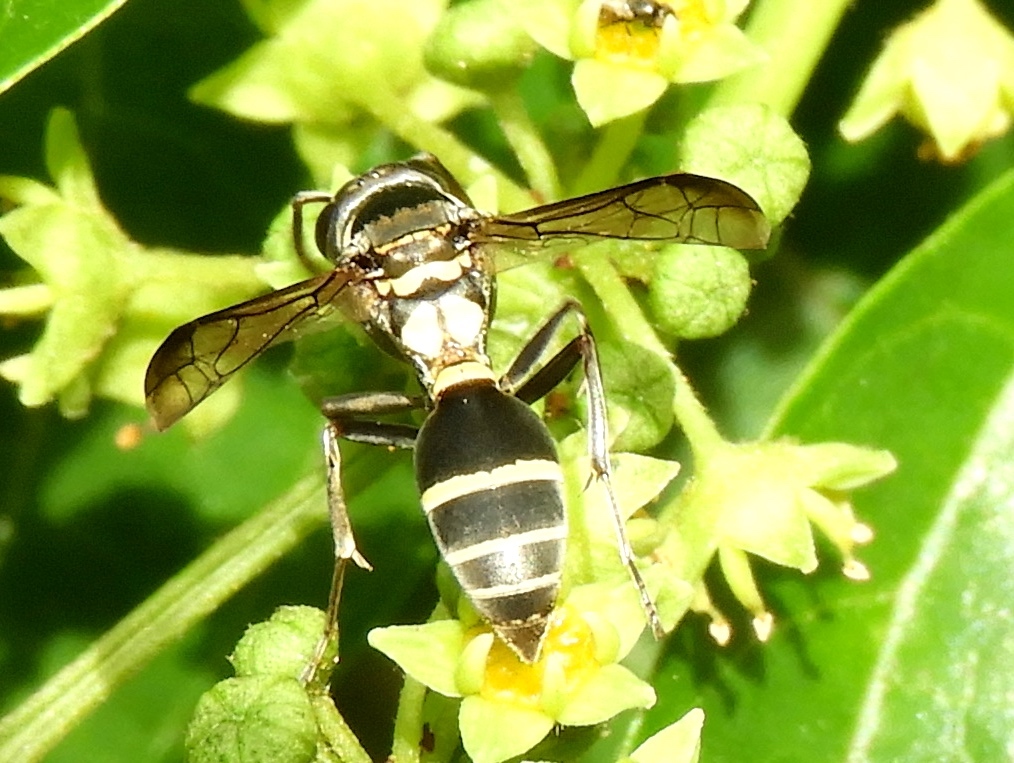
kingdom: Animalia
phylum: Arthropoda
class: Insecta
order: Hymenoptera
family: Vespidae
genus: Myrapetra
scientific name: Myrapetra
